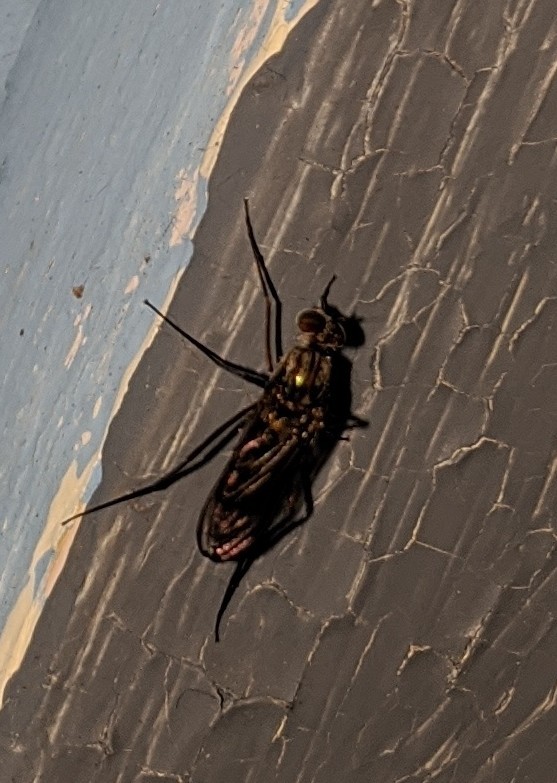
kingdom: Animalia
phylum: Arthropoda
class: Insecta
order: Diptera
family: Dolichopodidae
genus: Liancalus
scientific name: Liancalus genualis
